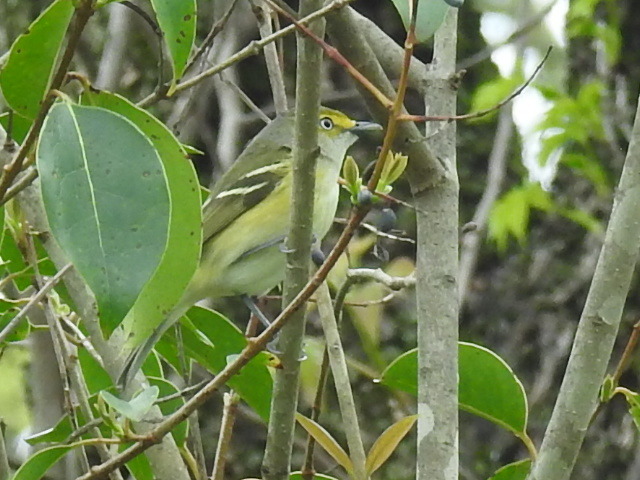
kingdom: Animalia
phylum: Chordata
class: Aves
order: Passeriformes
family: Vireonidae
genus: Vireo
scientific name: Vireo griseus
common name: White-eyed vireo
